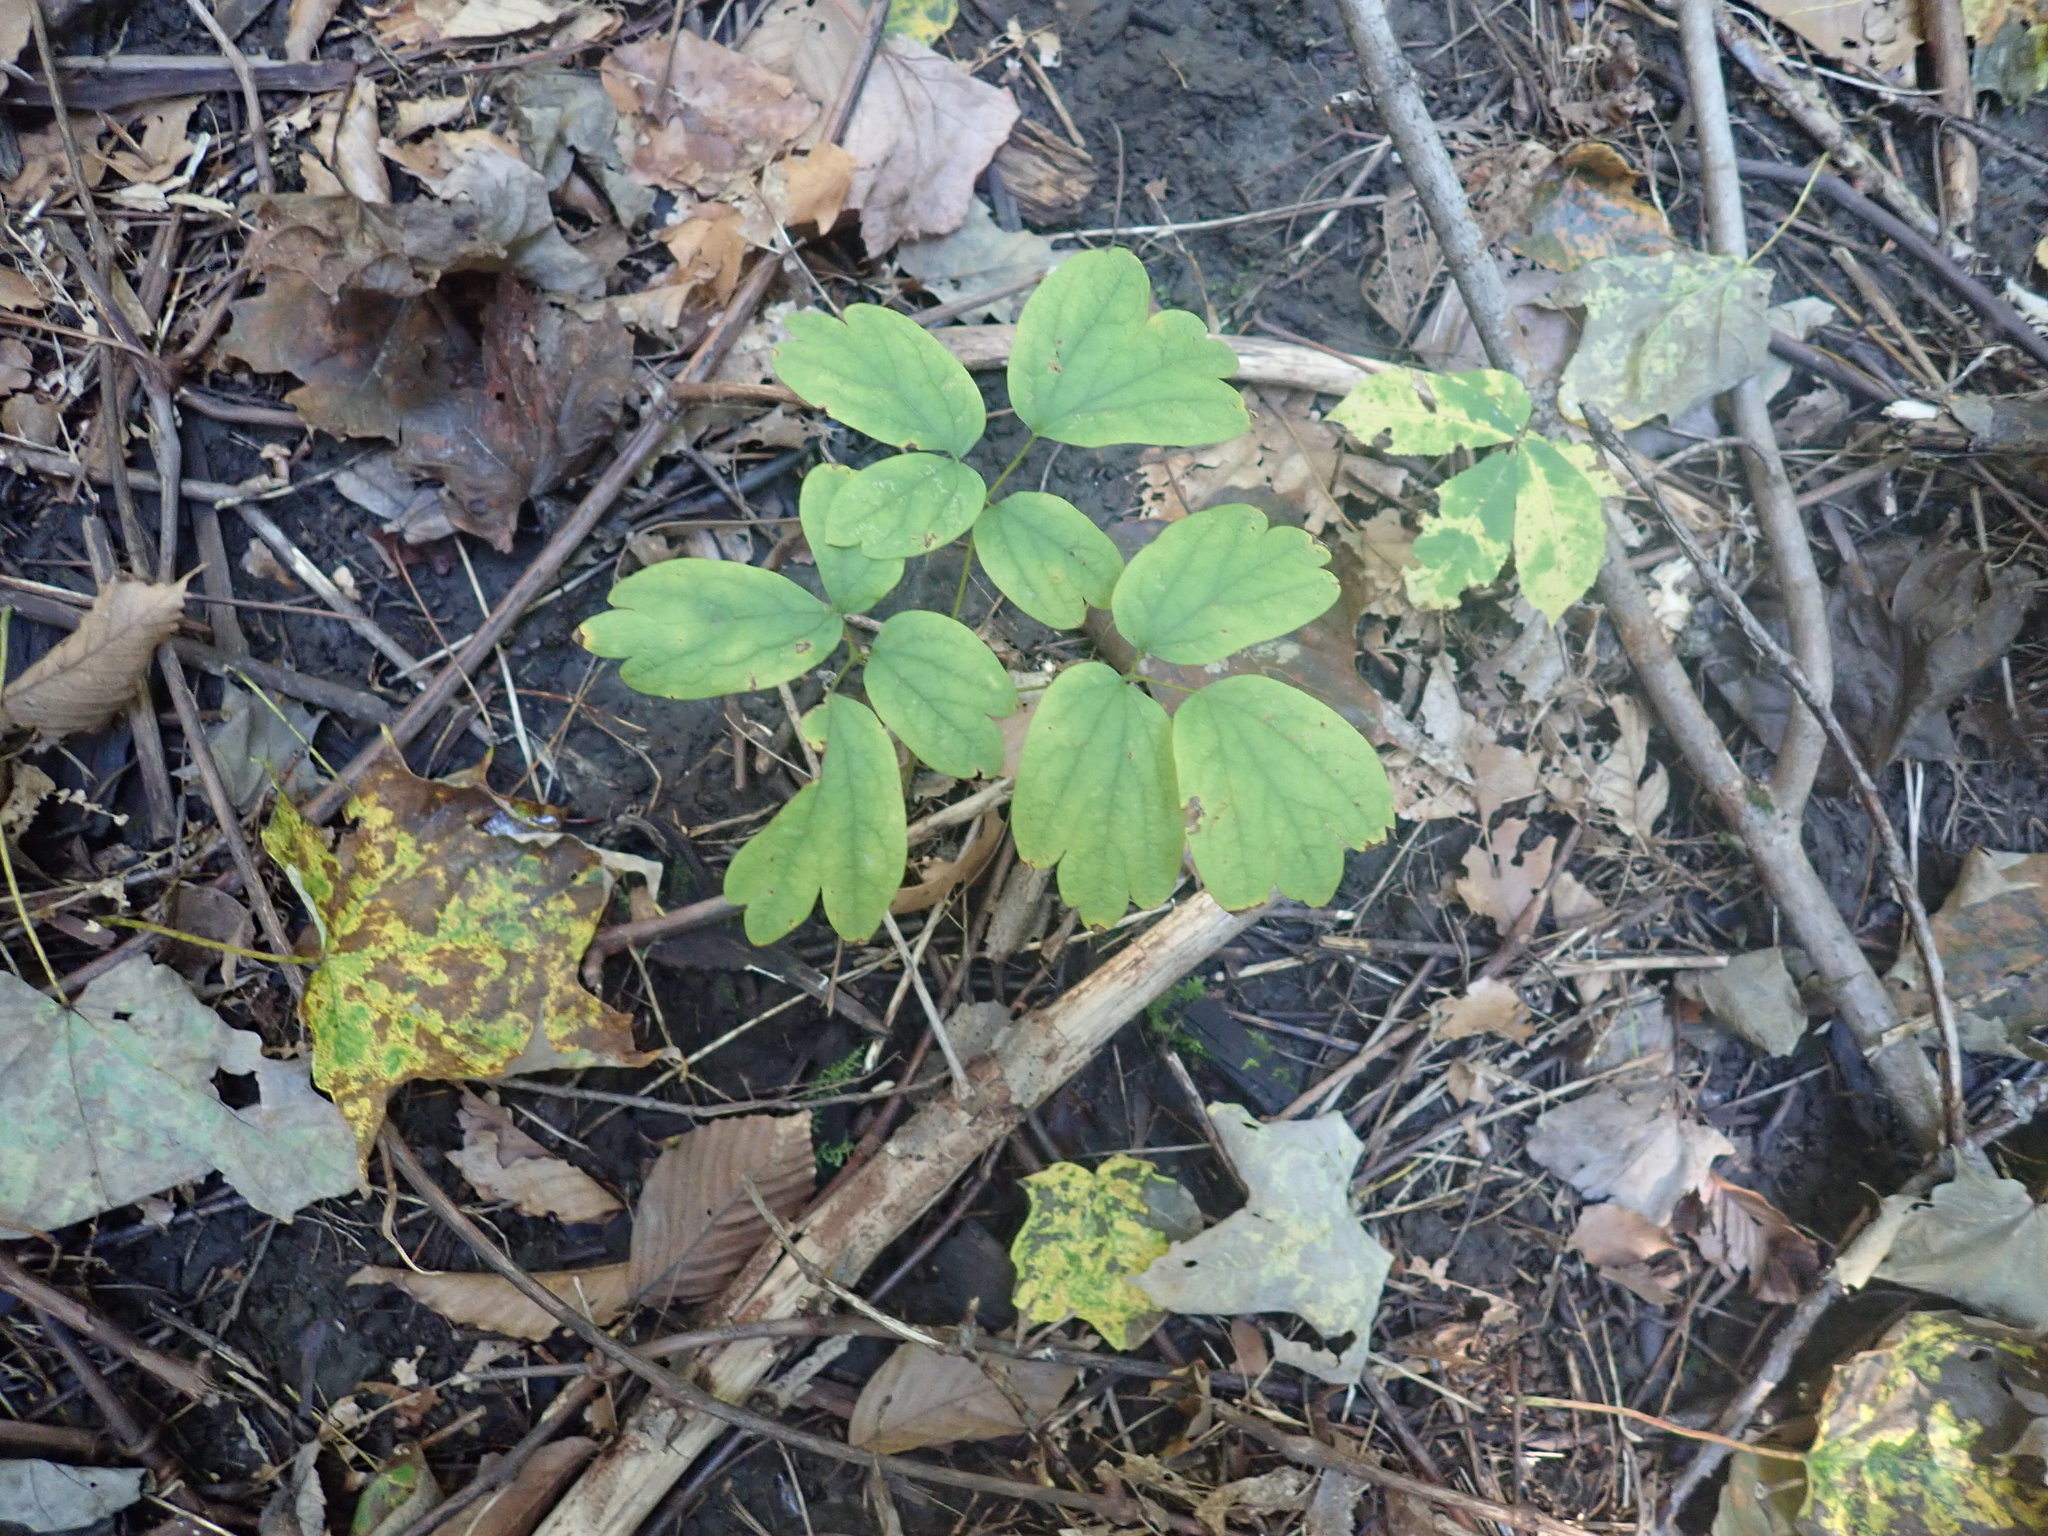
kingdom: Plantae
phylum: Tracheophyta
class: Magnoliopsida
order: Ranunculales
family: Berberidaceae
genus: Caulophyllum
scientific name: Caulophyllum
